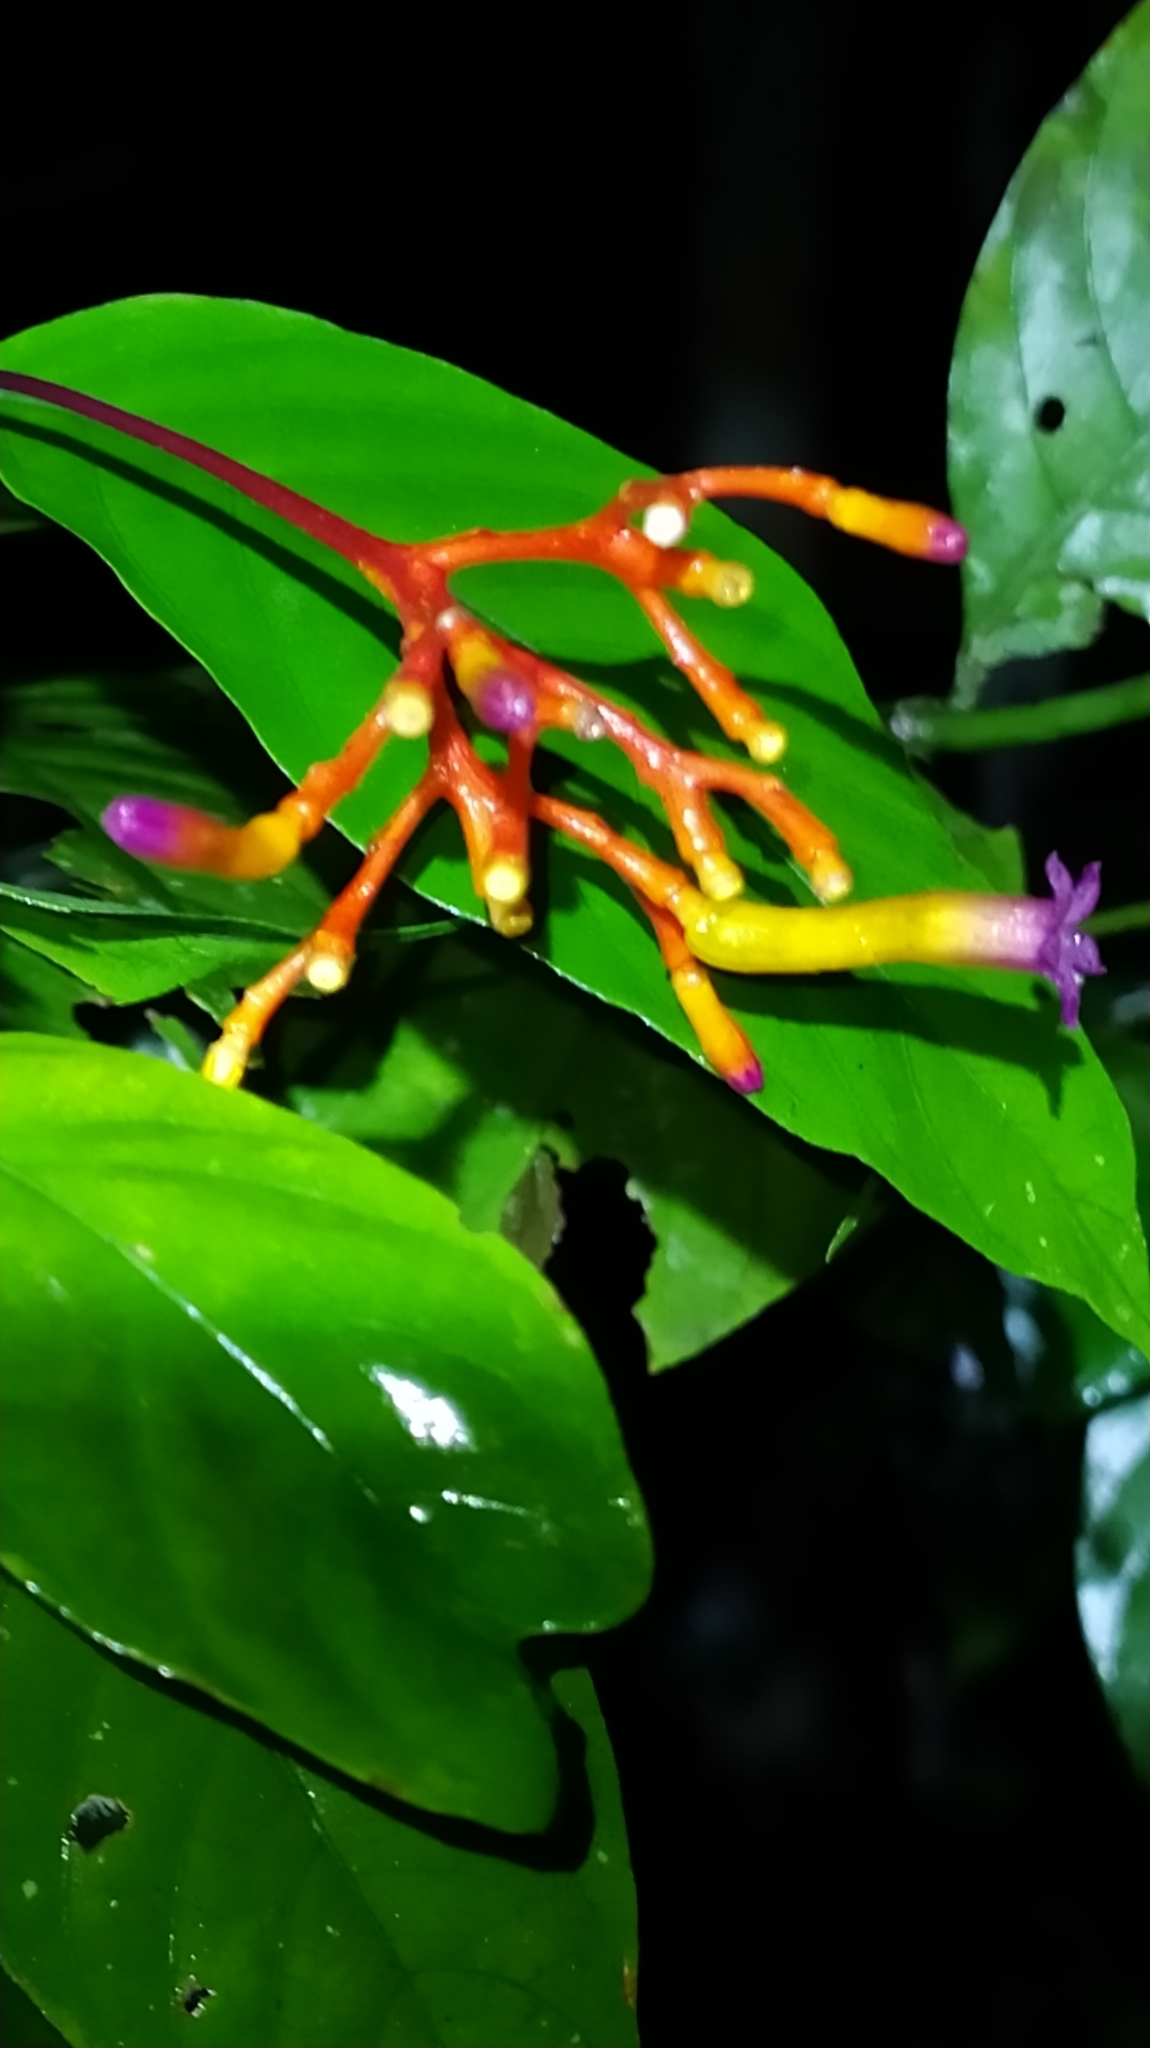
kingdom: Plantae
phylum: Tracheophyta
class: Magnoliopsida
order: Gentianales
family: Rubiaceae
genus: Palicourea
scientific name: Palicourea longiflora
